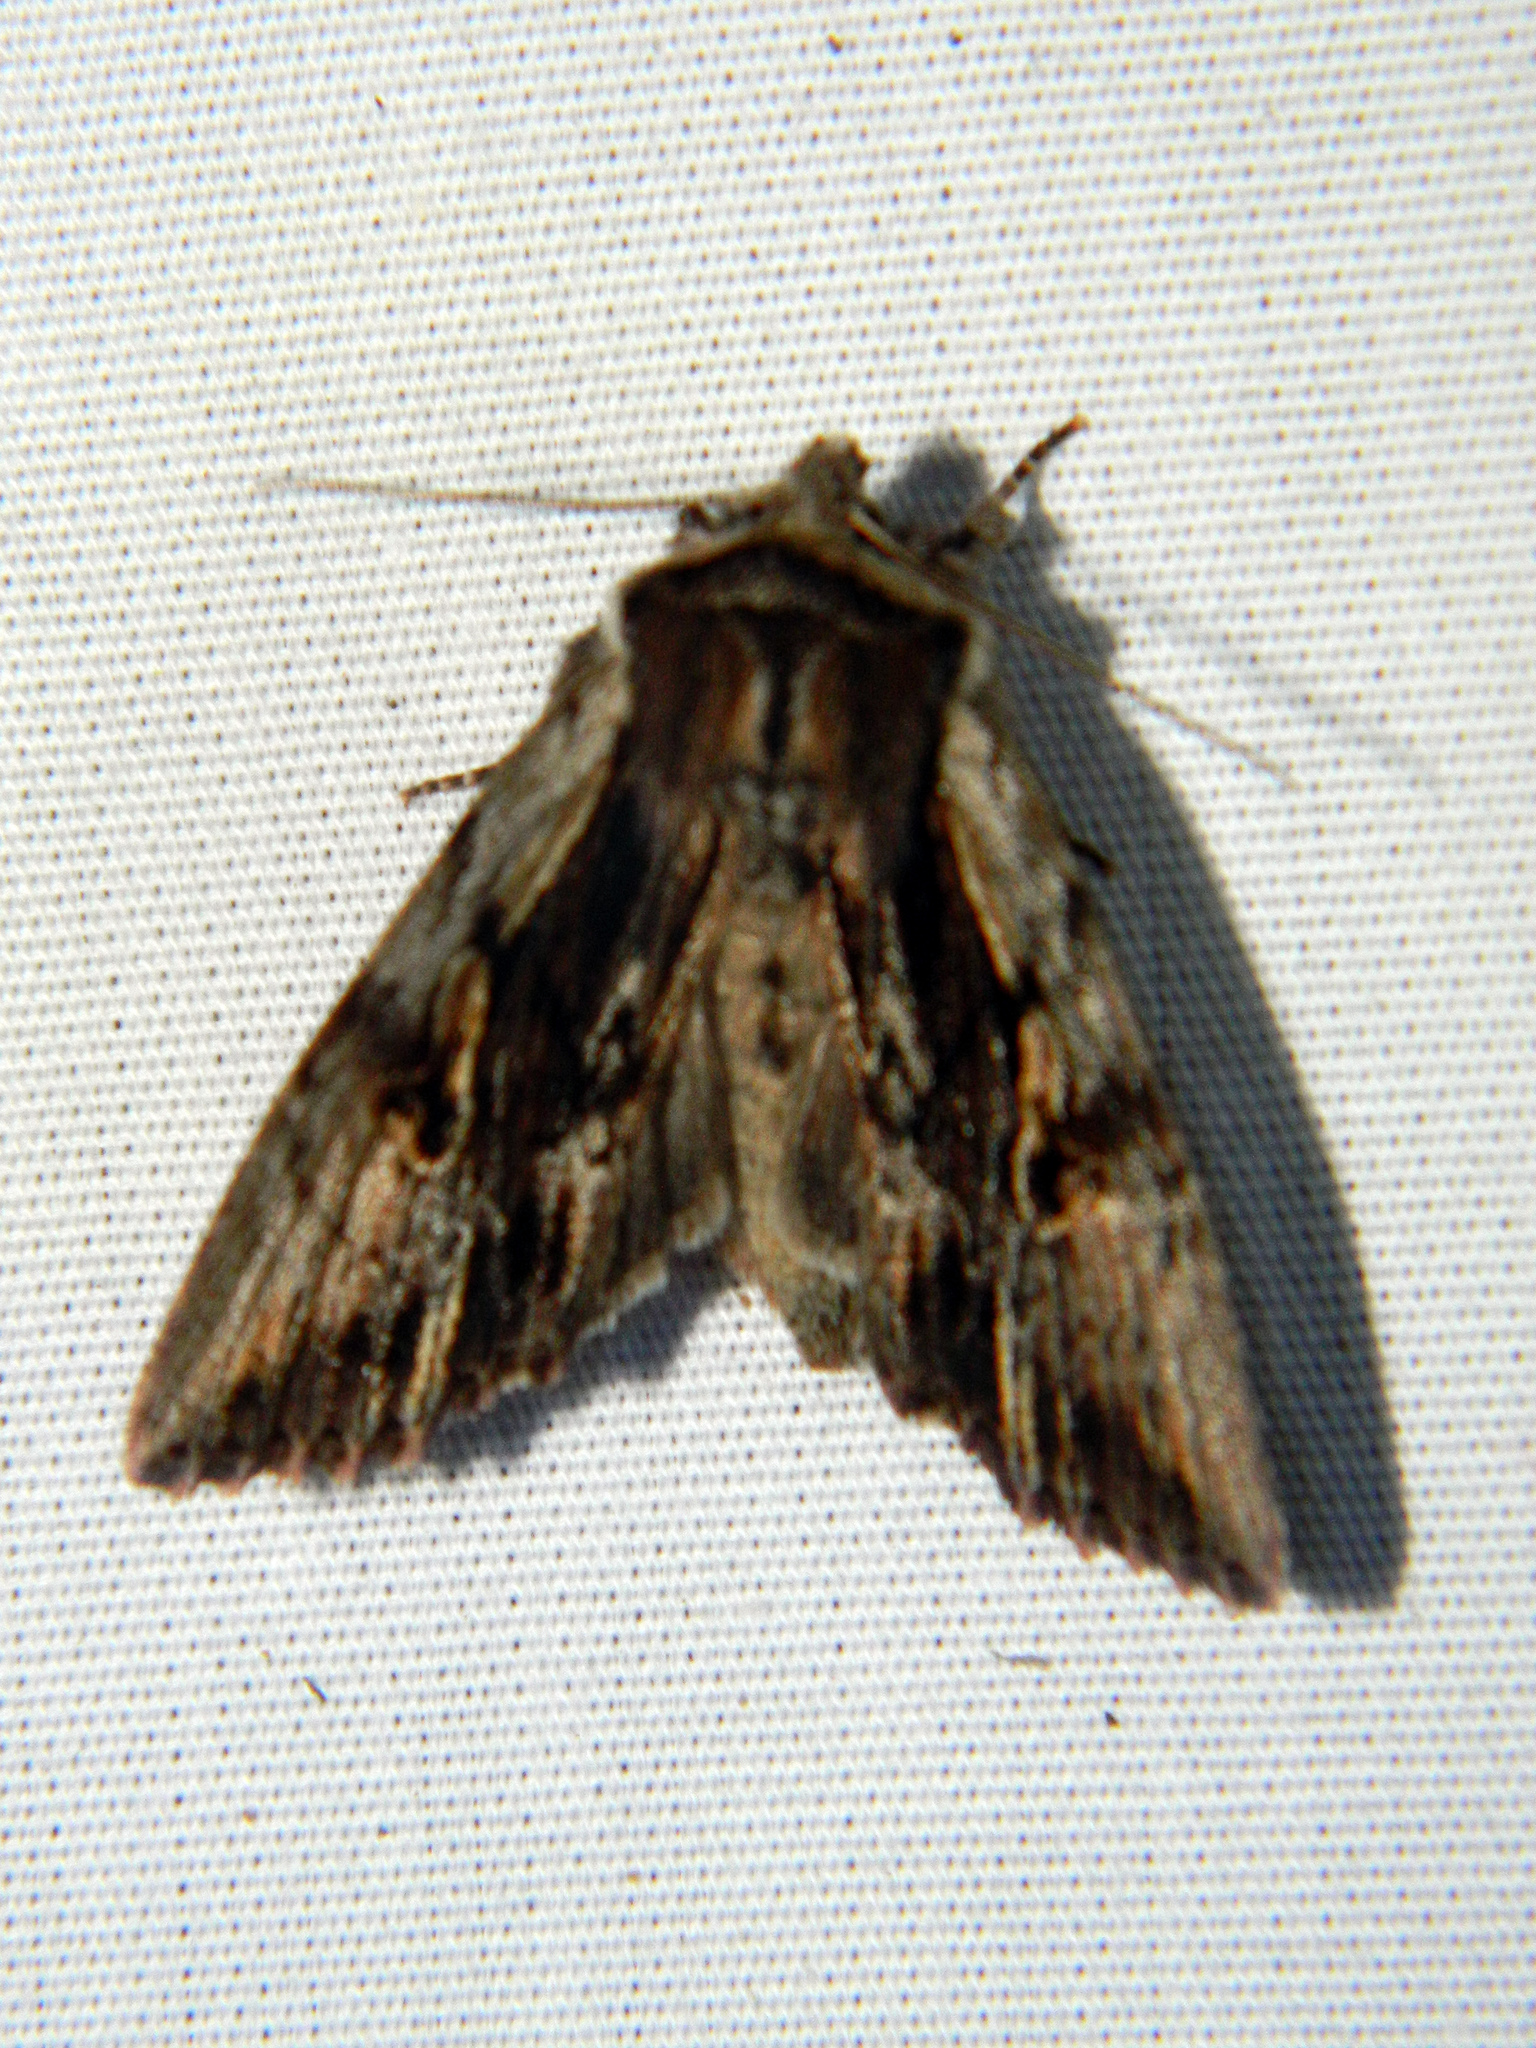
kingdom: Animalia
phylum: Arthropoda
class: Insecta
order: Lepidoptera
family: Noctuidae
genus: Achatia
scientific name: Achatia evicta
